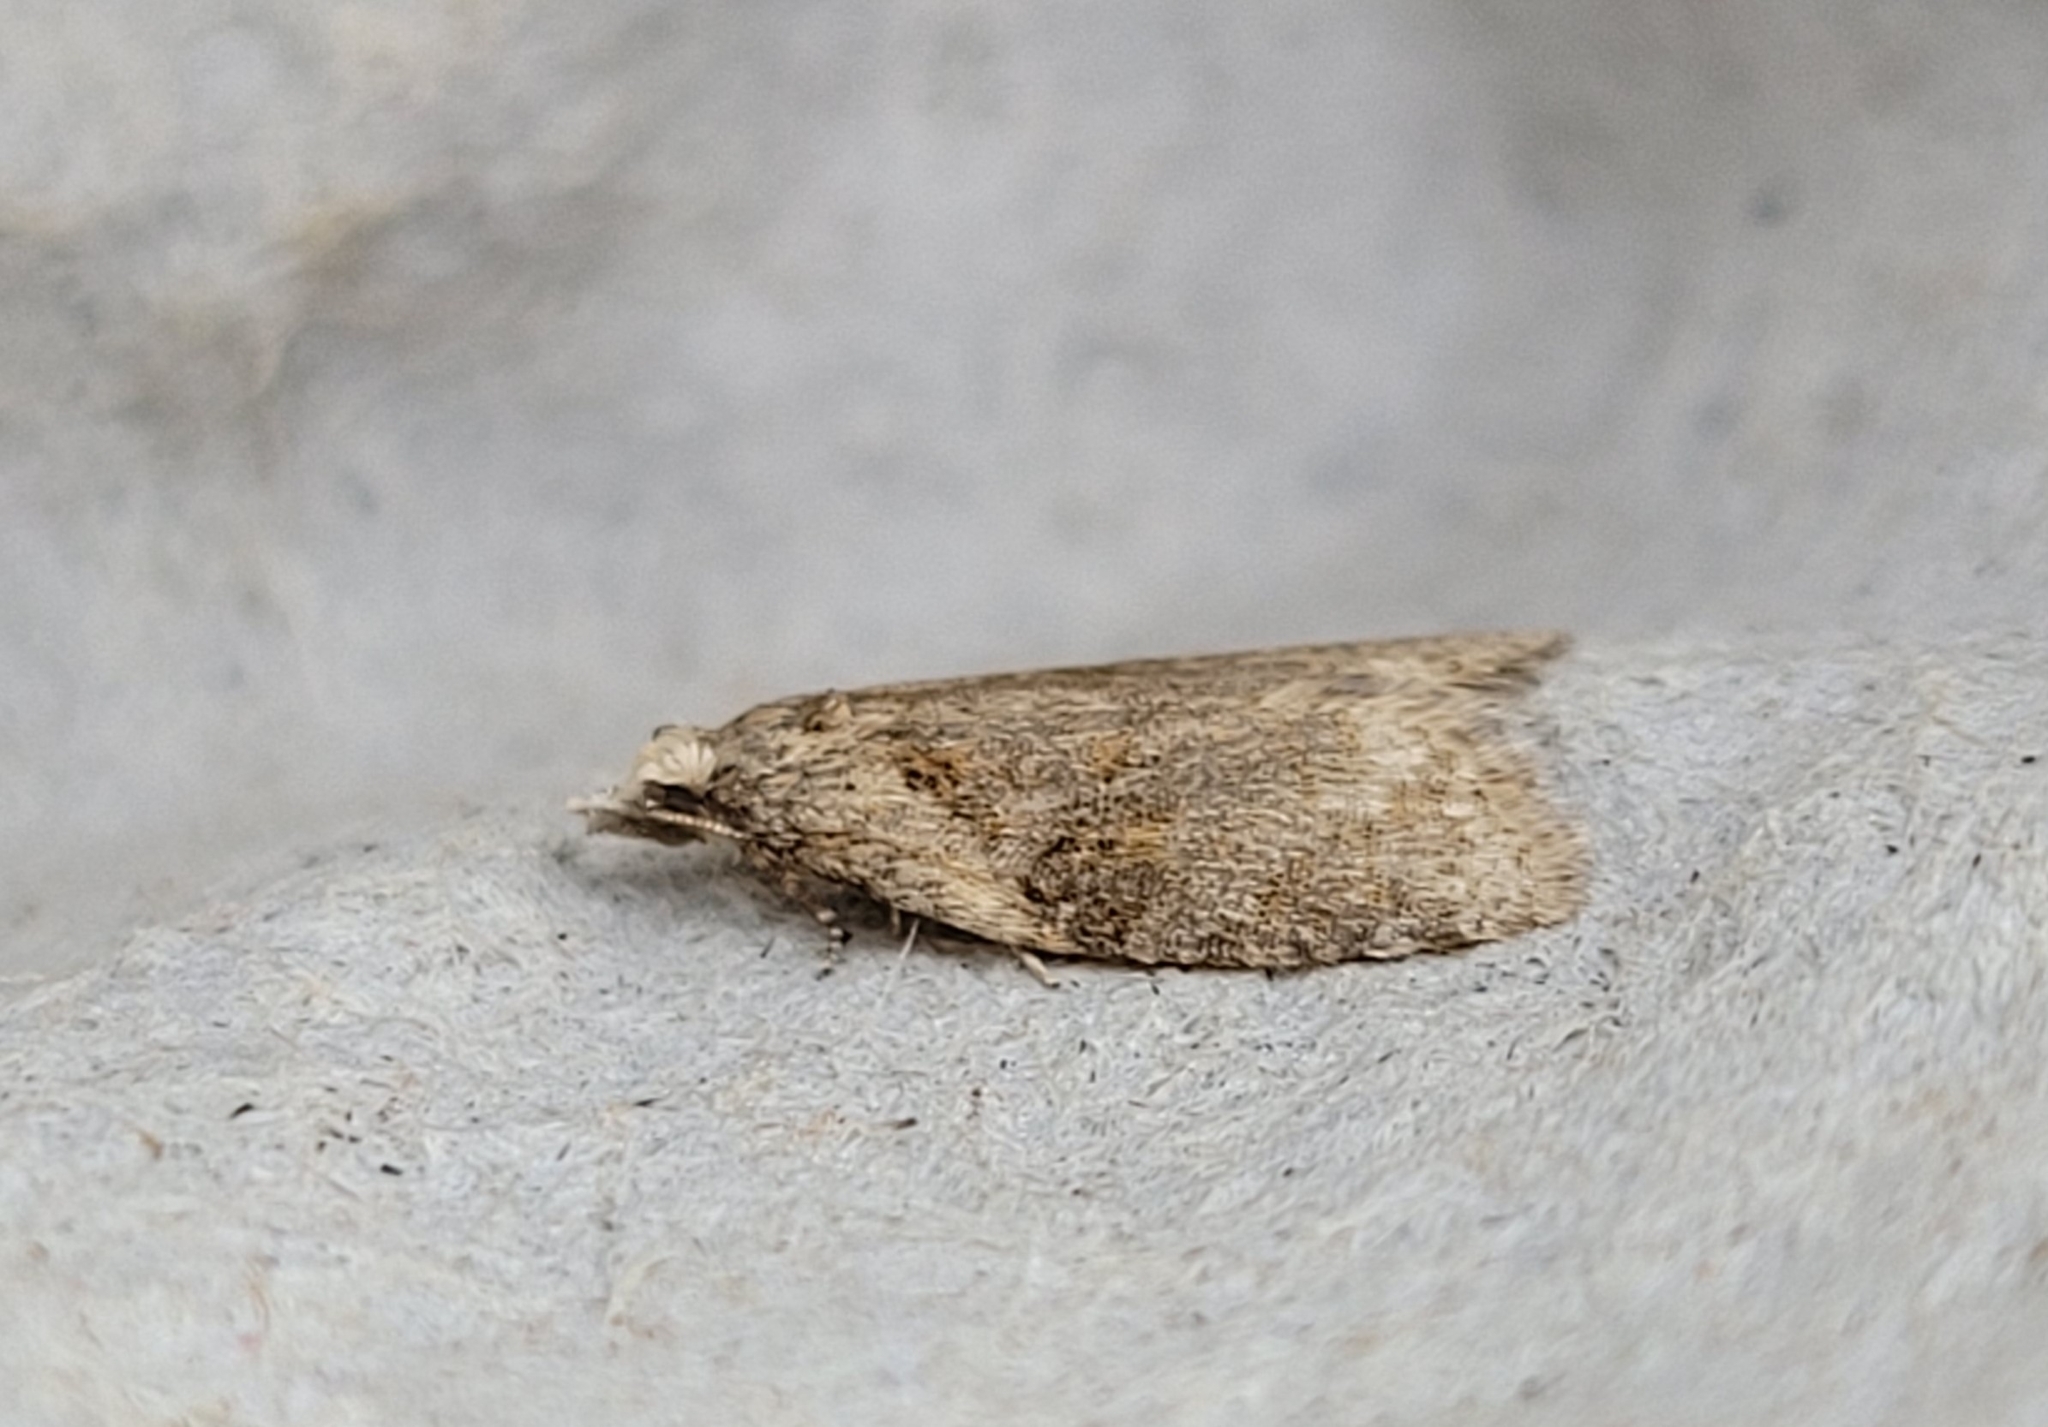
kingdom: Animalia
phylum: Arthropoda
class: Insecta
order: Lepidoptera
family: Tortricidae
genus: Capua
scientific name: Capua vulgana
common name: Common twist
